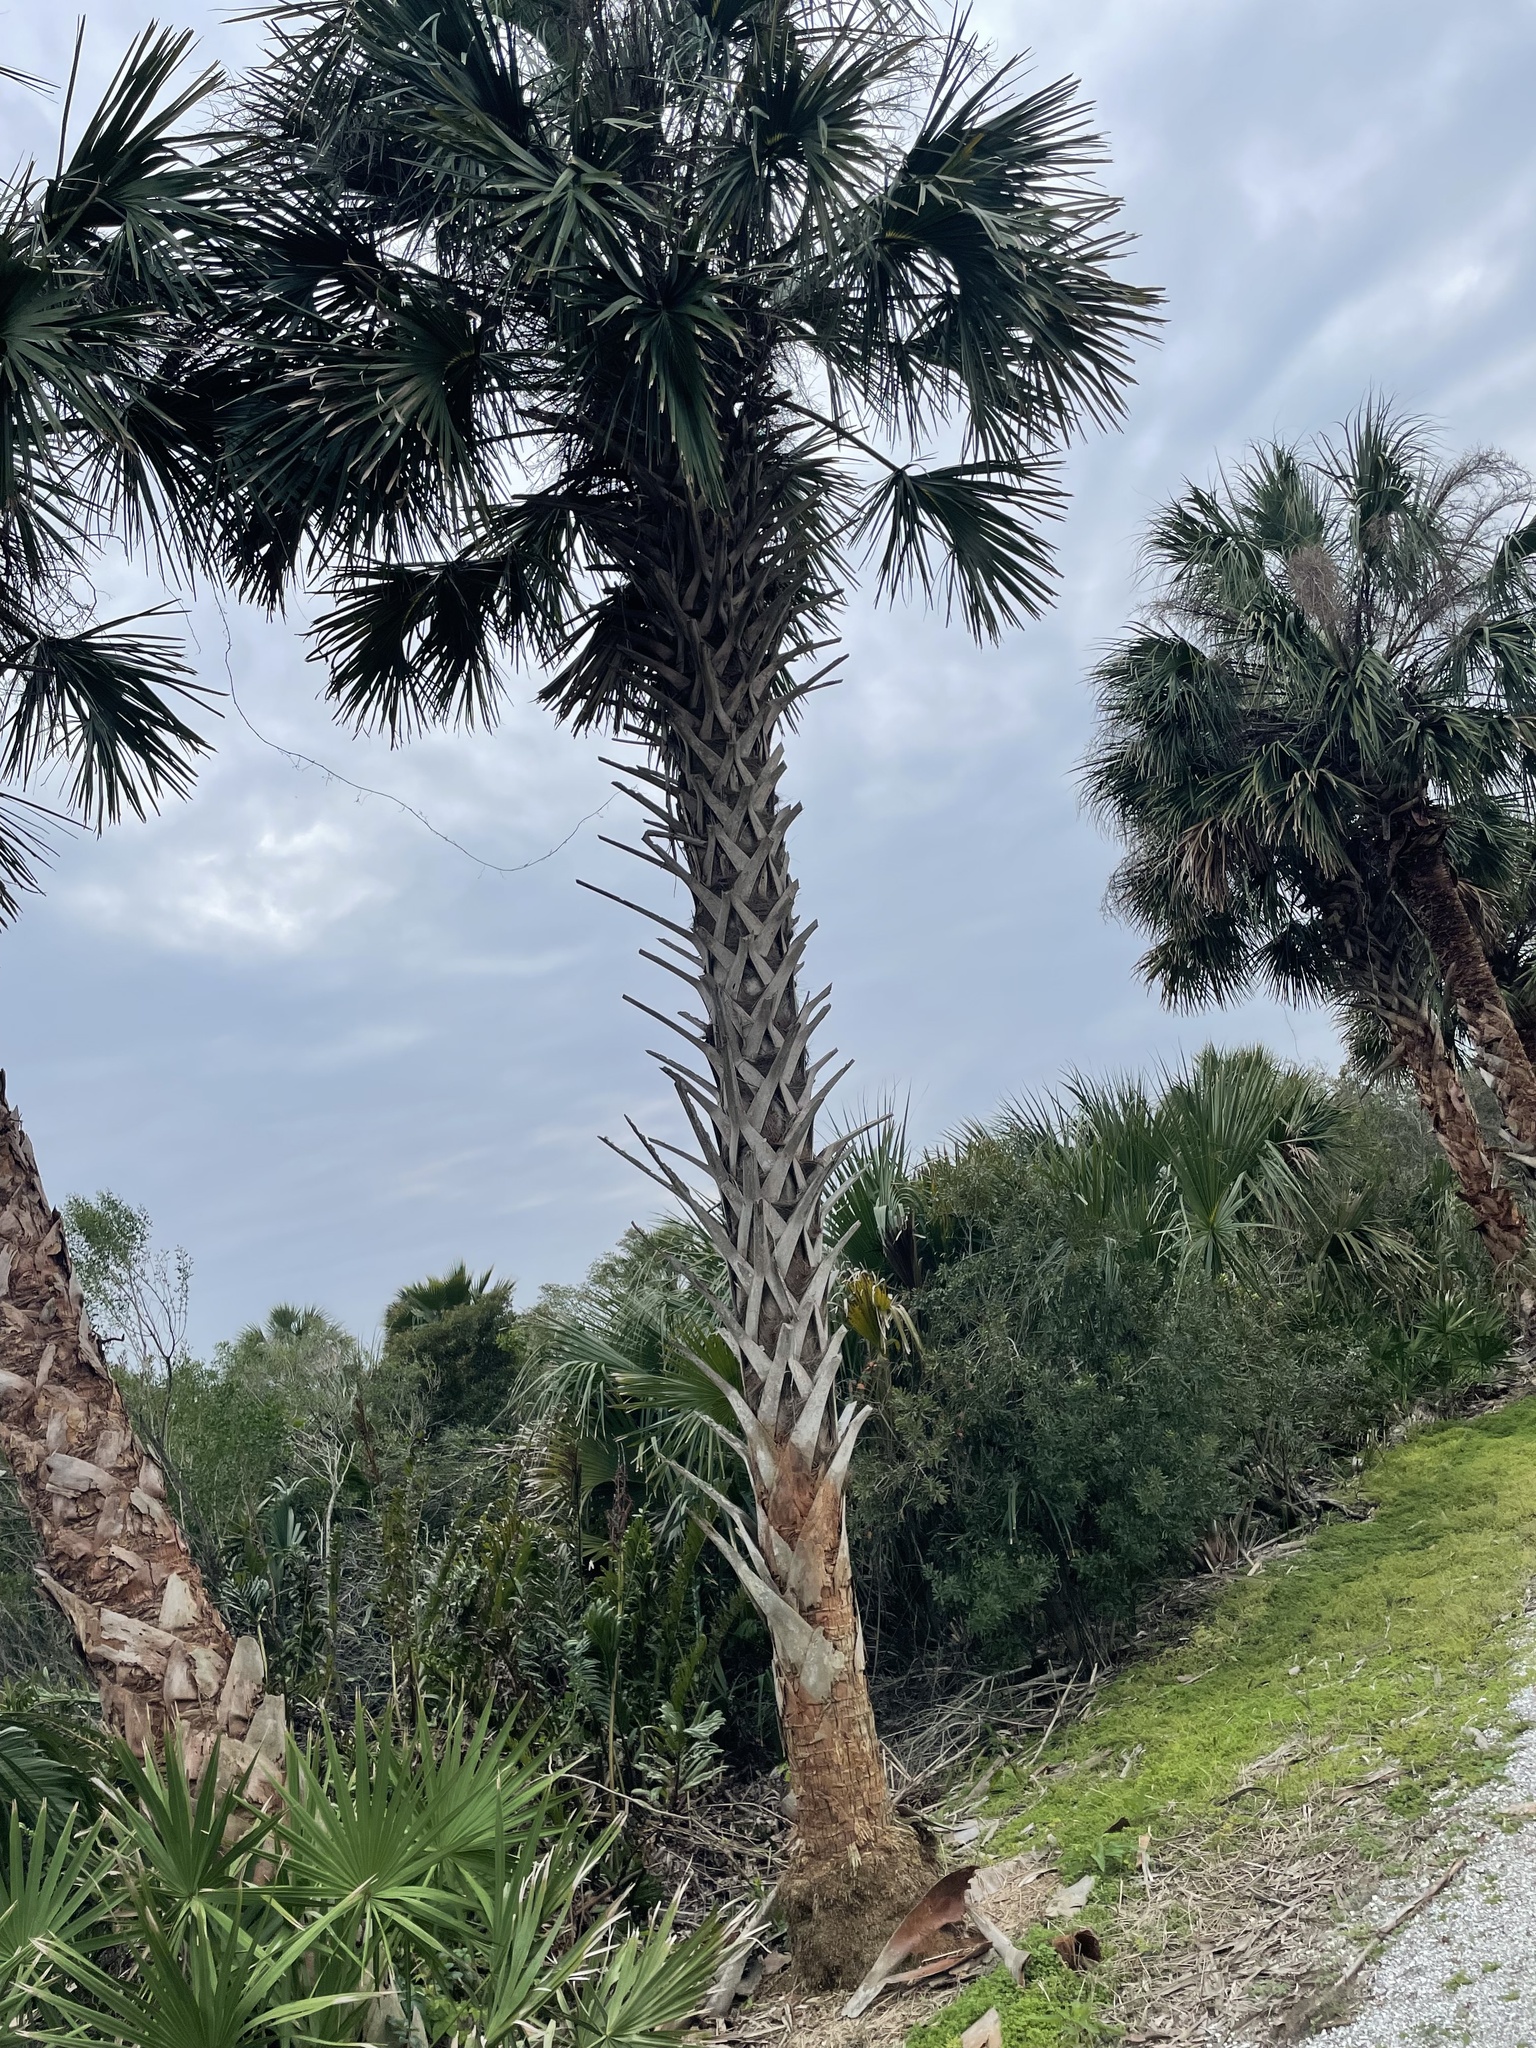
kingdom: Plantae
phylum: Tracheophyta
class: Liliopsida
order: Arecales
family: Arecaceae
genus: Sabal
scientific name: Sabal palmetto
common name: Blue palmetto
